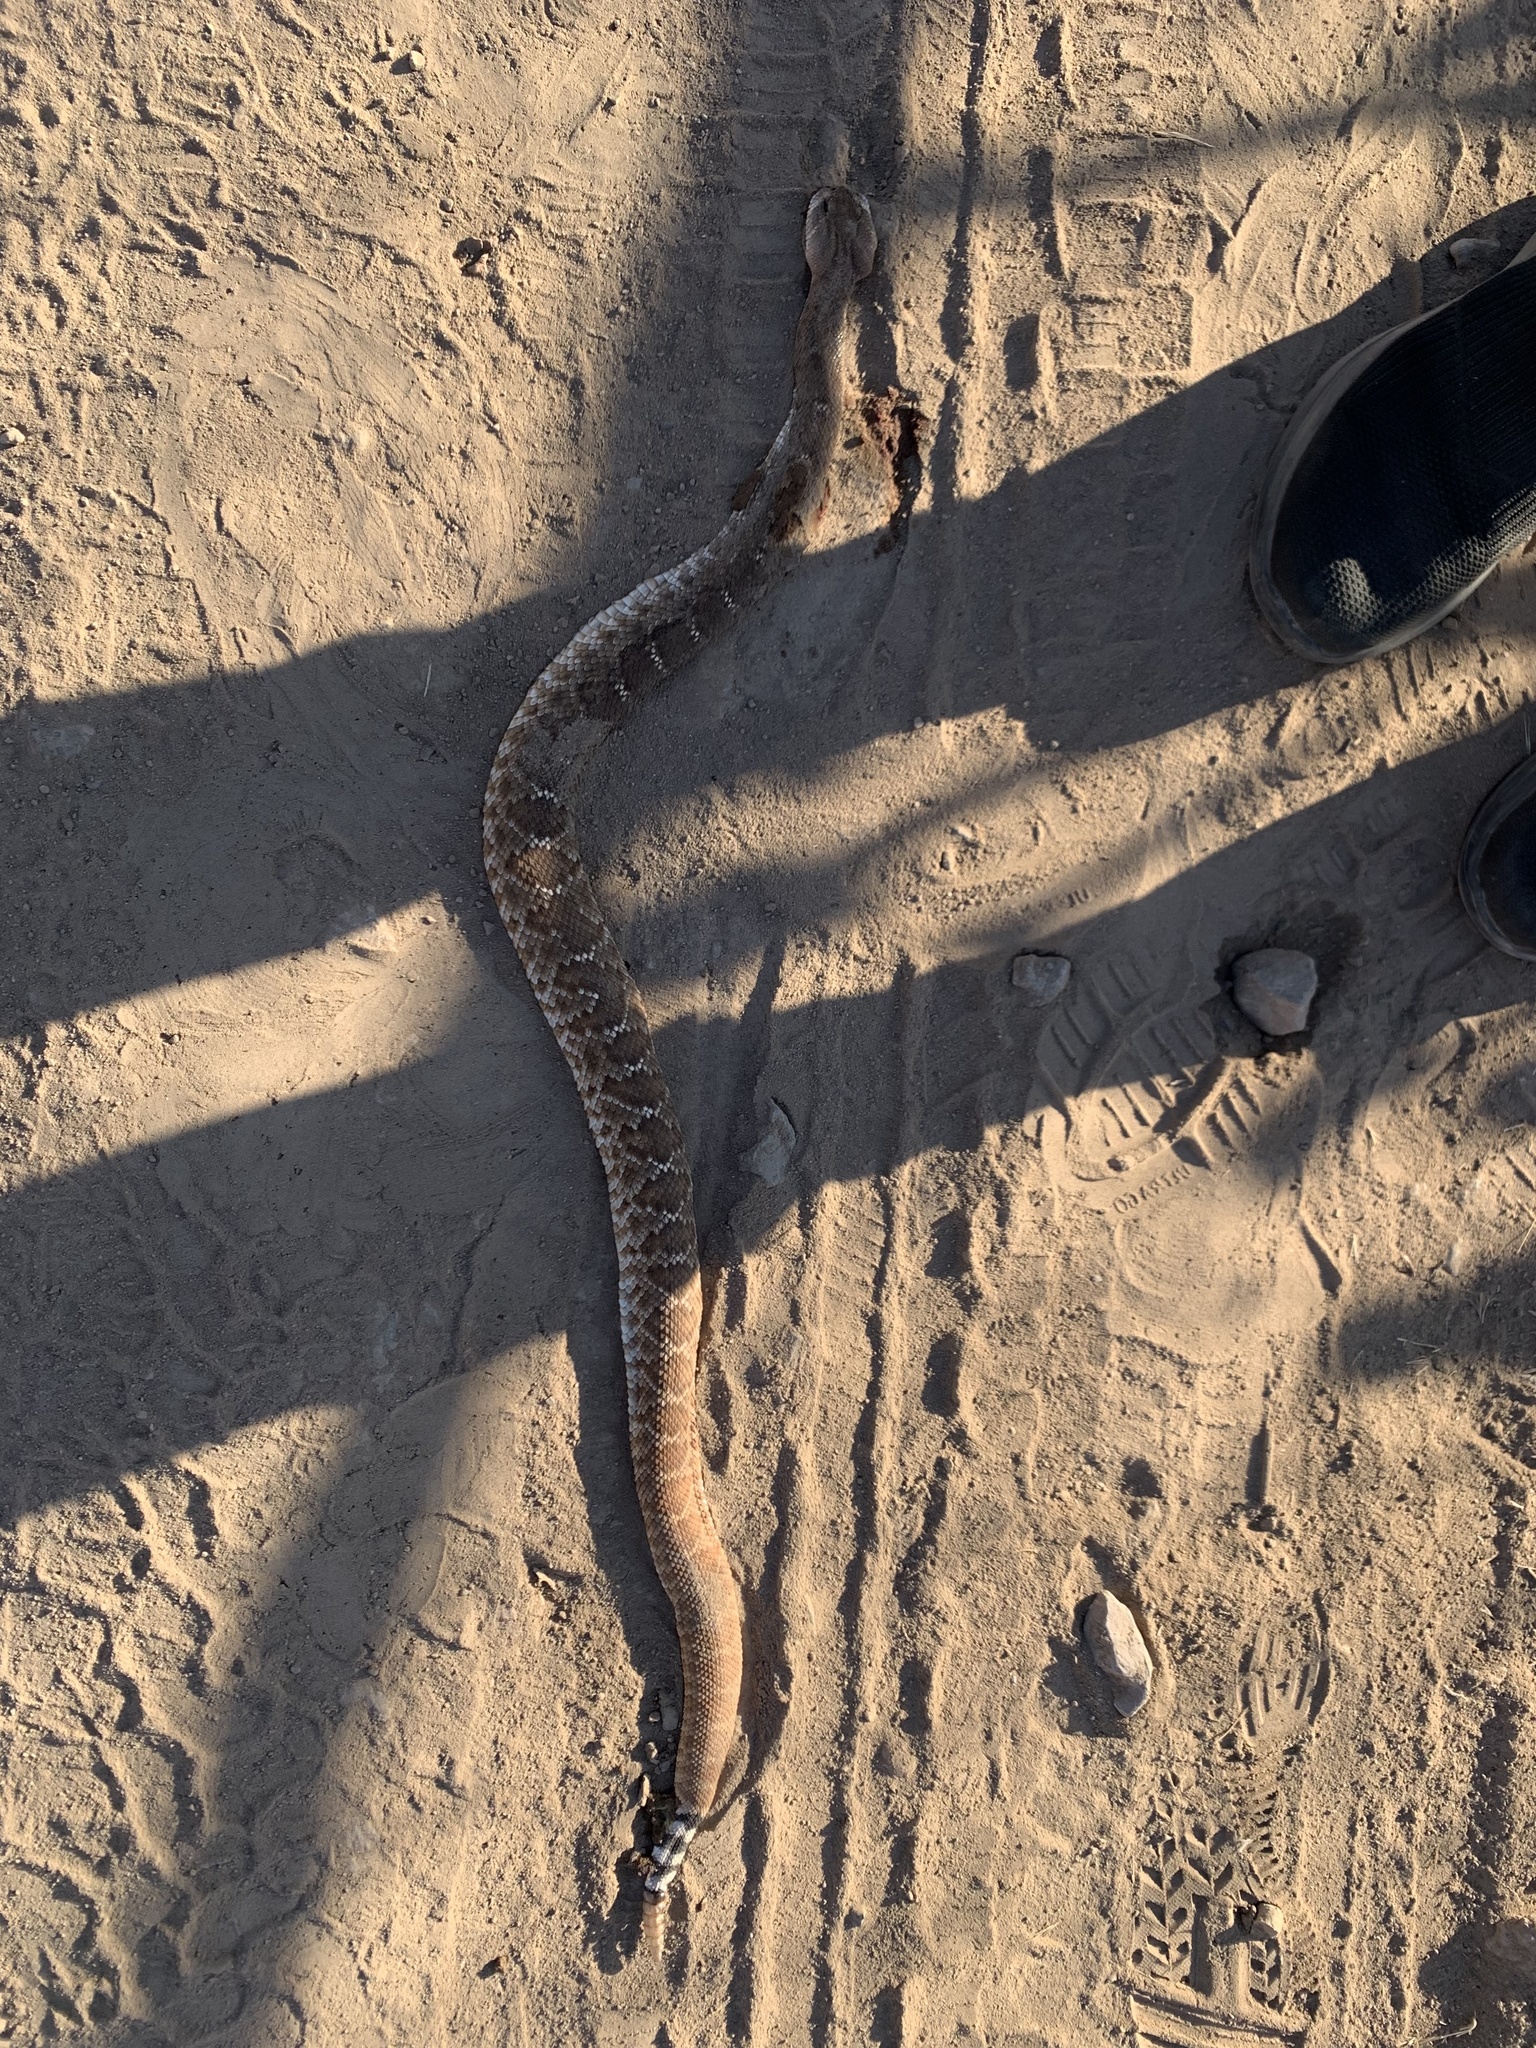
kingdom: Animalia
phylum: Chordata
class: Squamata
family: Viperidae
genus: Crotalus
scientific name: Crotalus ruber
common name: Red diamond rattlesnake
